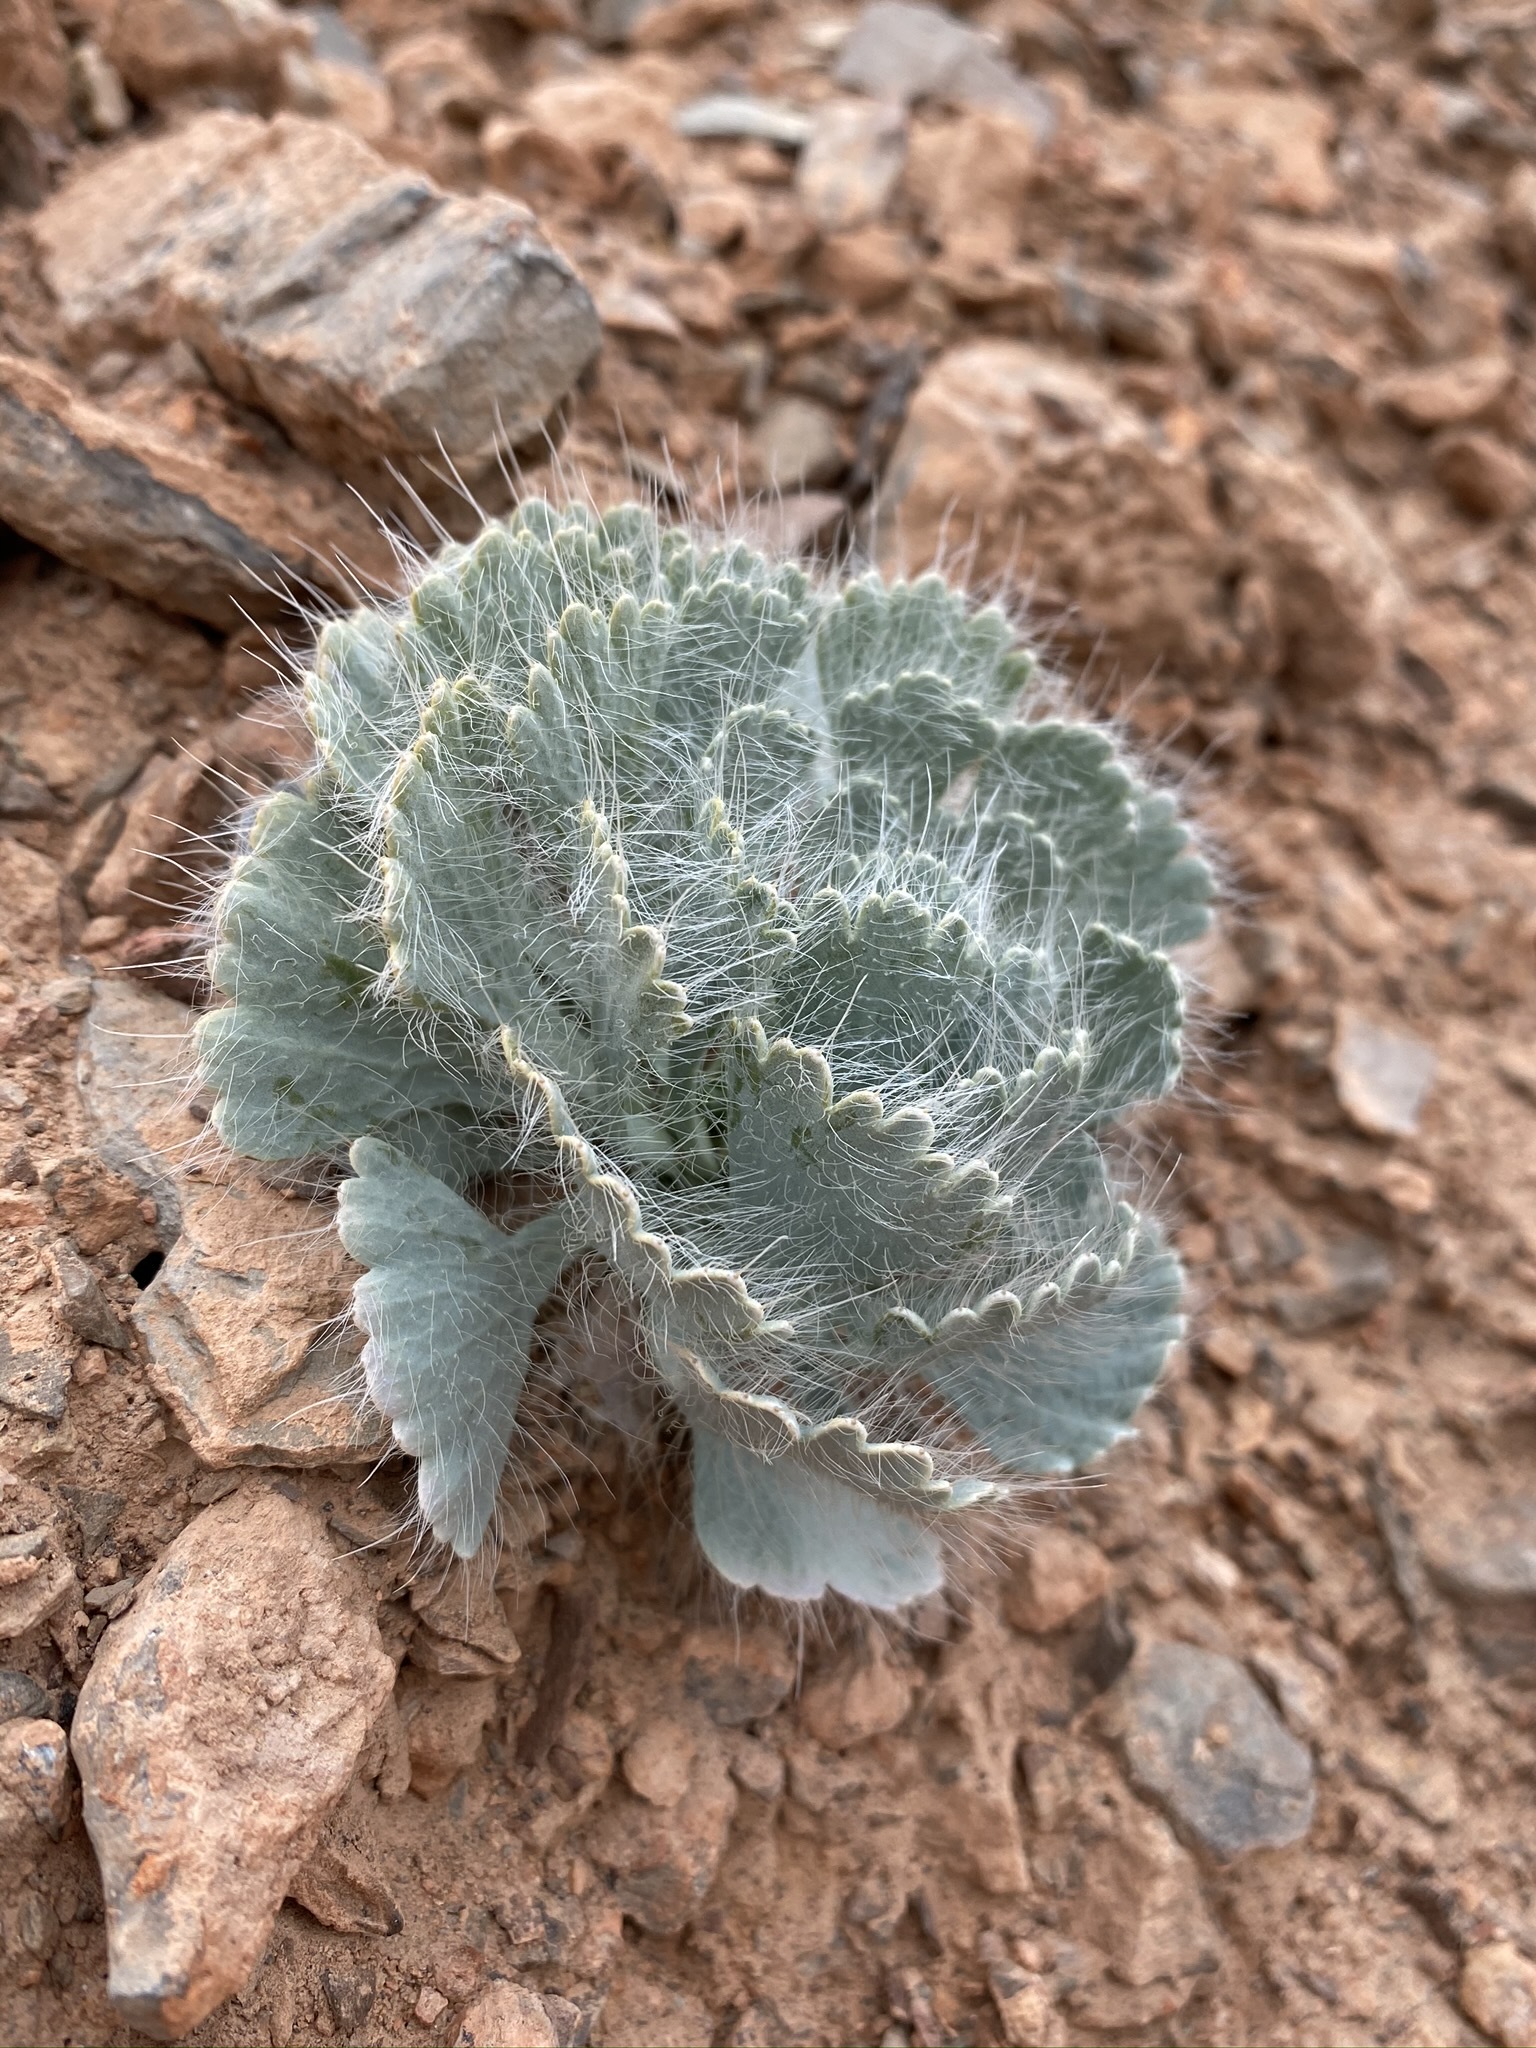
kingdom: Plantae
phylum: Tracheophyta
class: Magnoliopsida
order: Ranunculales
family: Papaveraceae
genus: Arctomecon
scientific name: Arctomecon merriamii
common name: White bear-poppy
